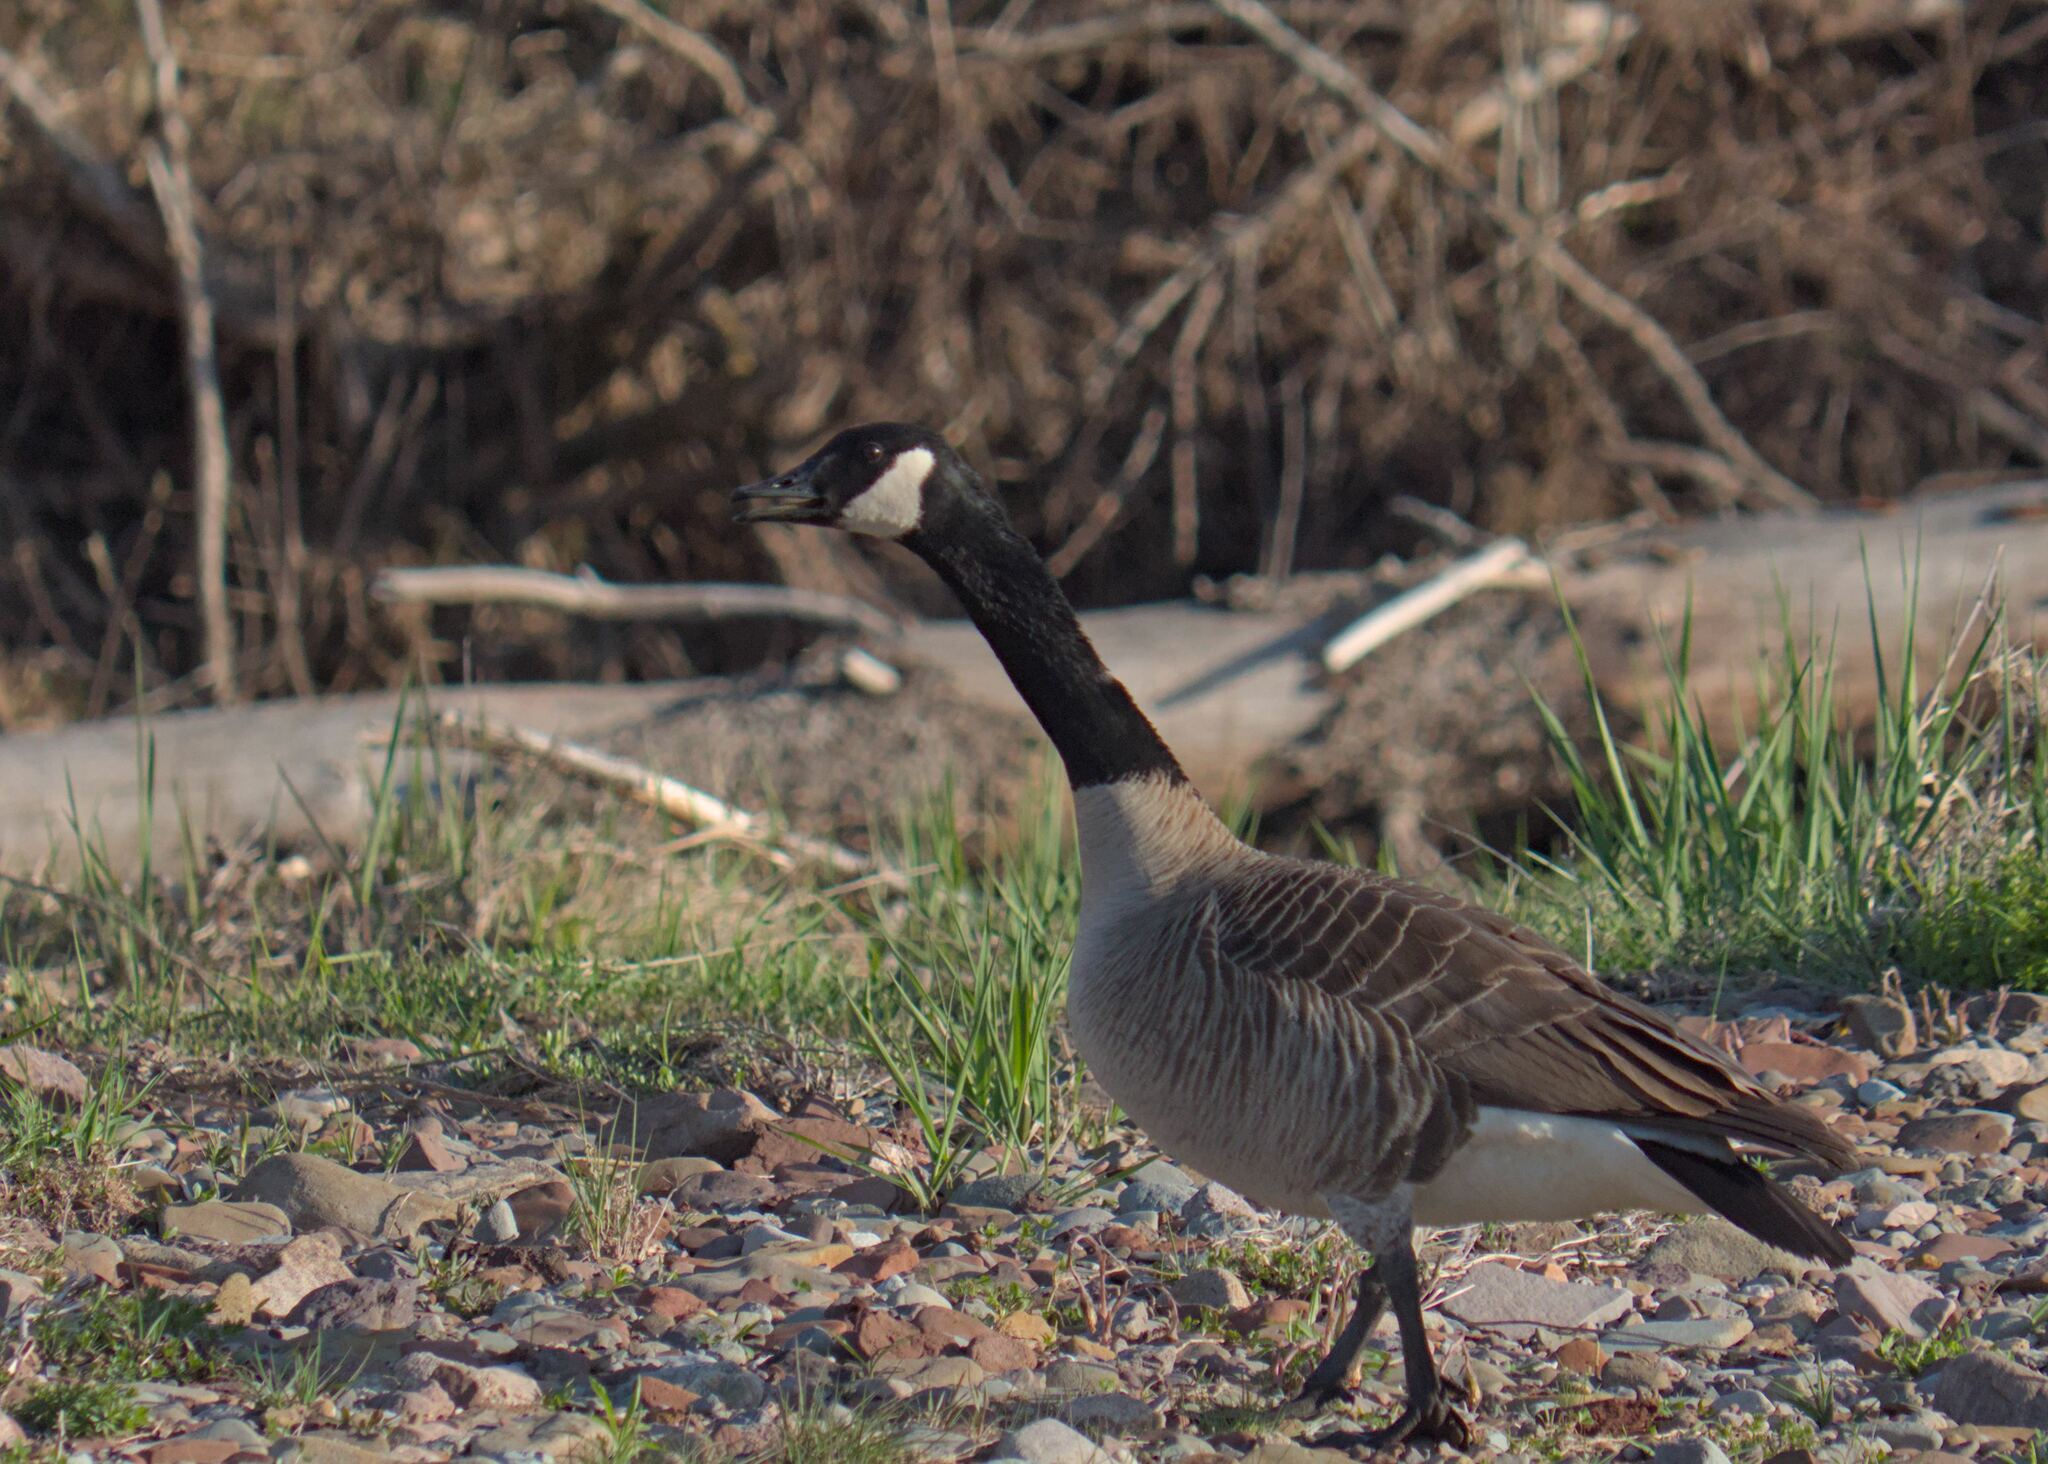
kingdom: Animalia
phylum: Chordata
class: Aves
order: Anseriformes
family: Anatidae
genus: Branta
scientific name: Branta canadensis
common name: Canada goose
